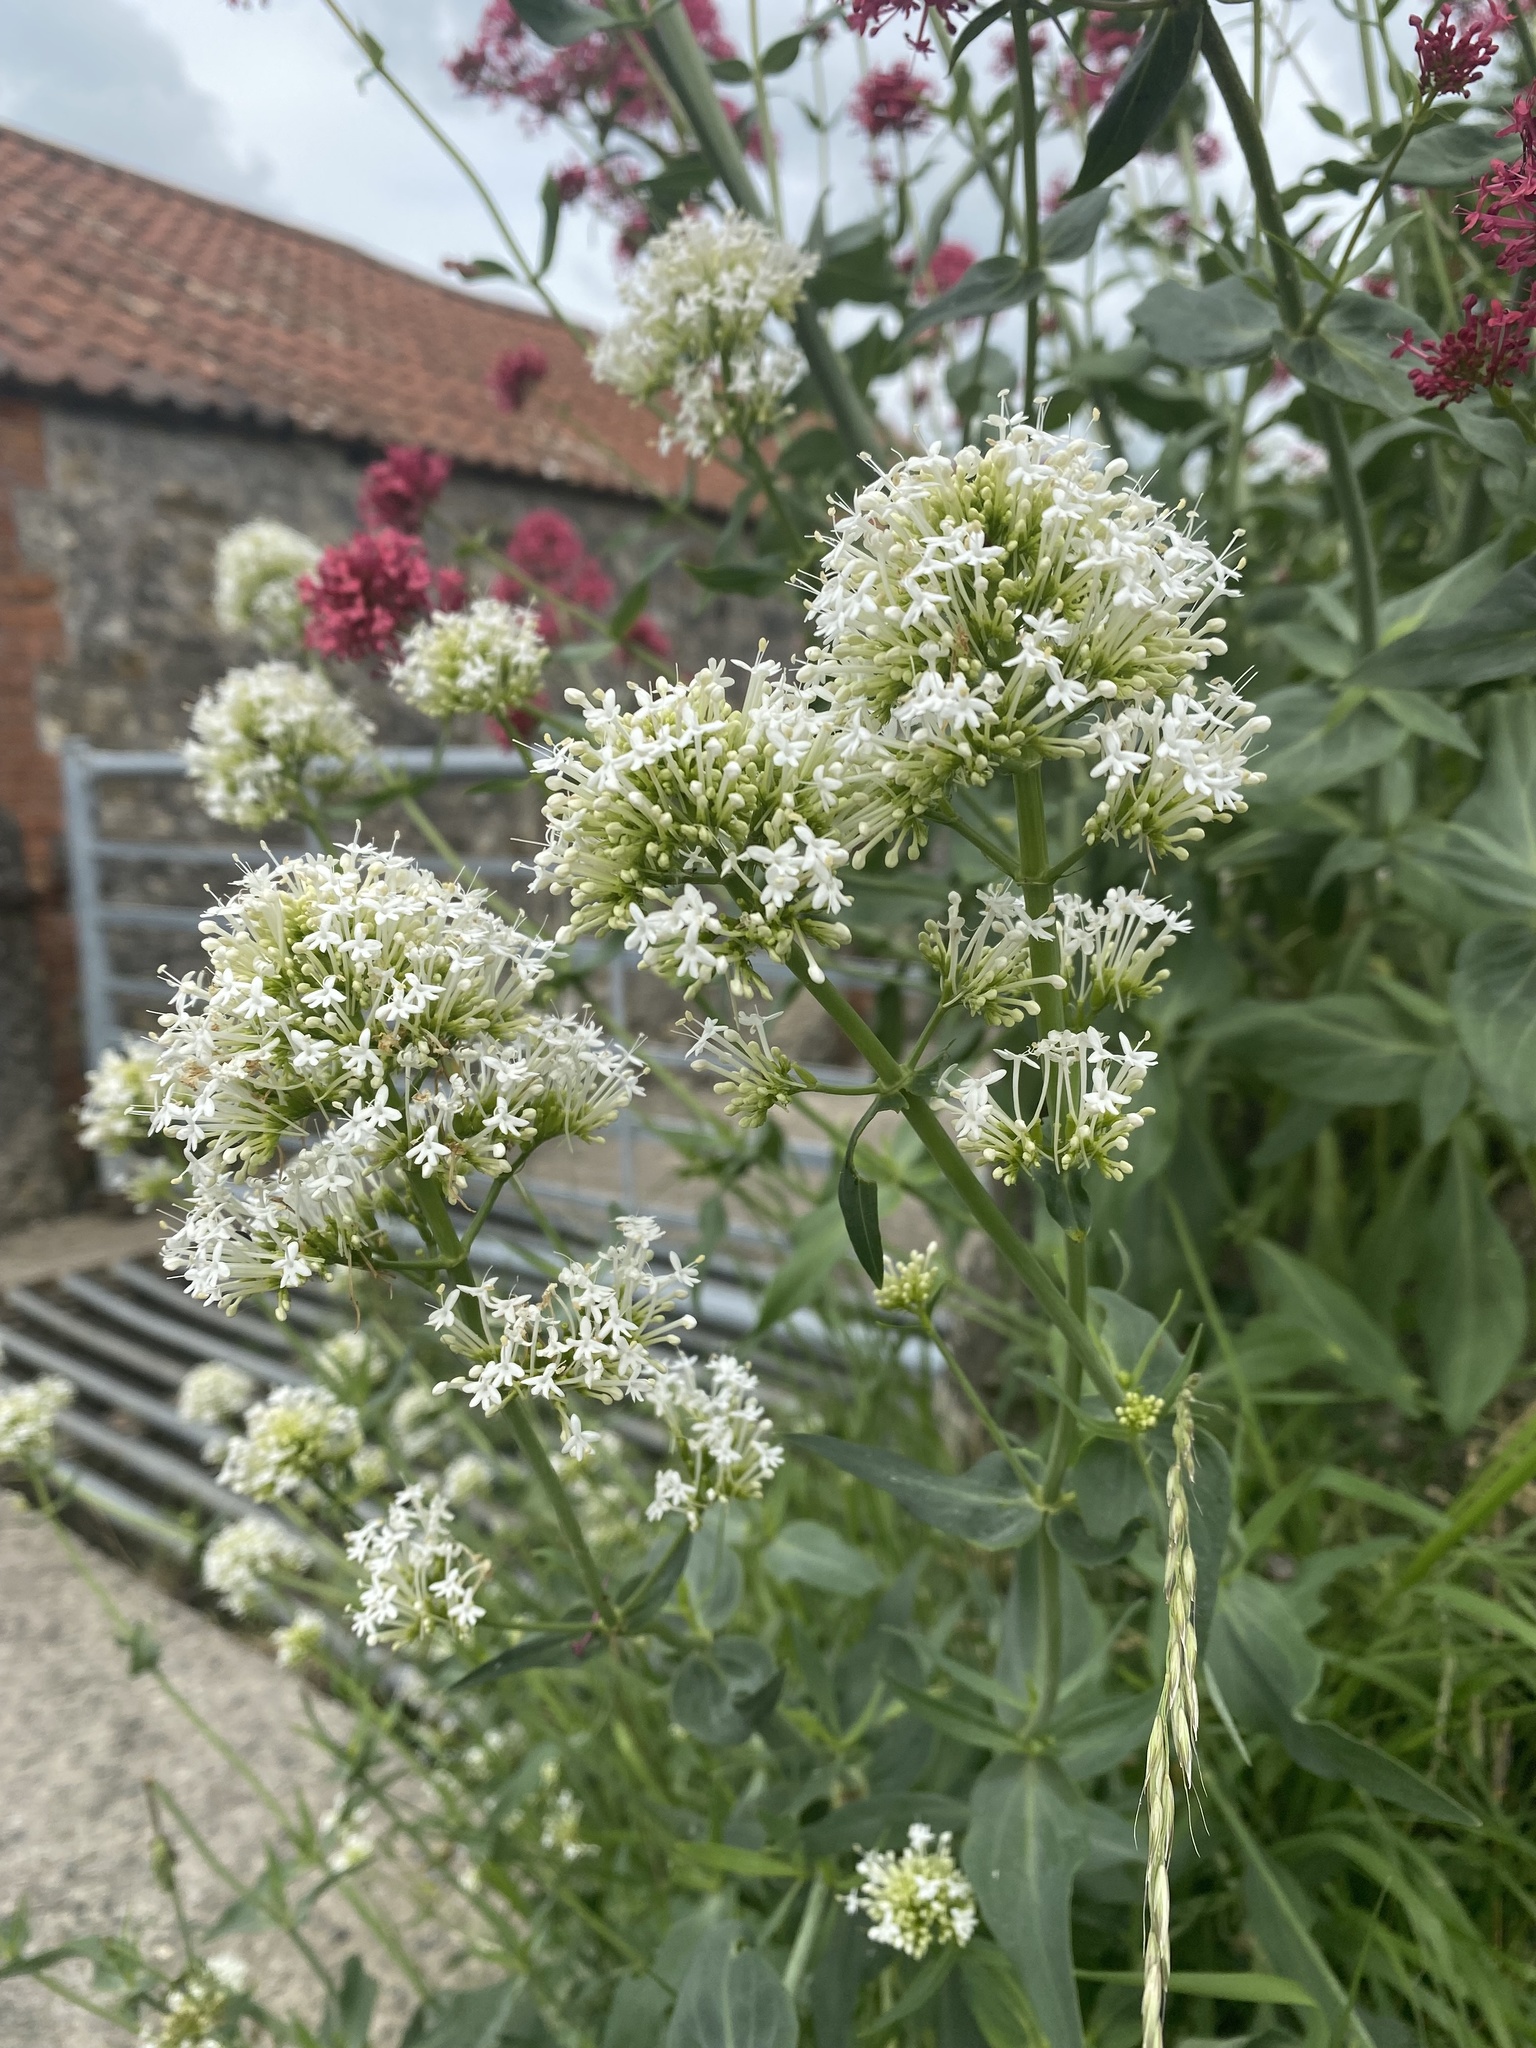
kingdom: Plantae
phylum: Tracheophyta
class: Magnoliopsida
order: Dipsacales
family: Caprifoliaceae
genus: Centranthus
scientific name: Centranthus ruber
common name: Red valerian
